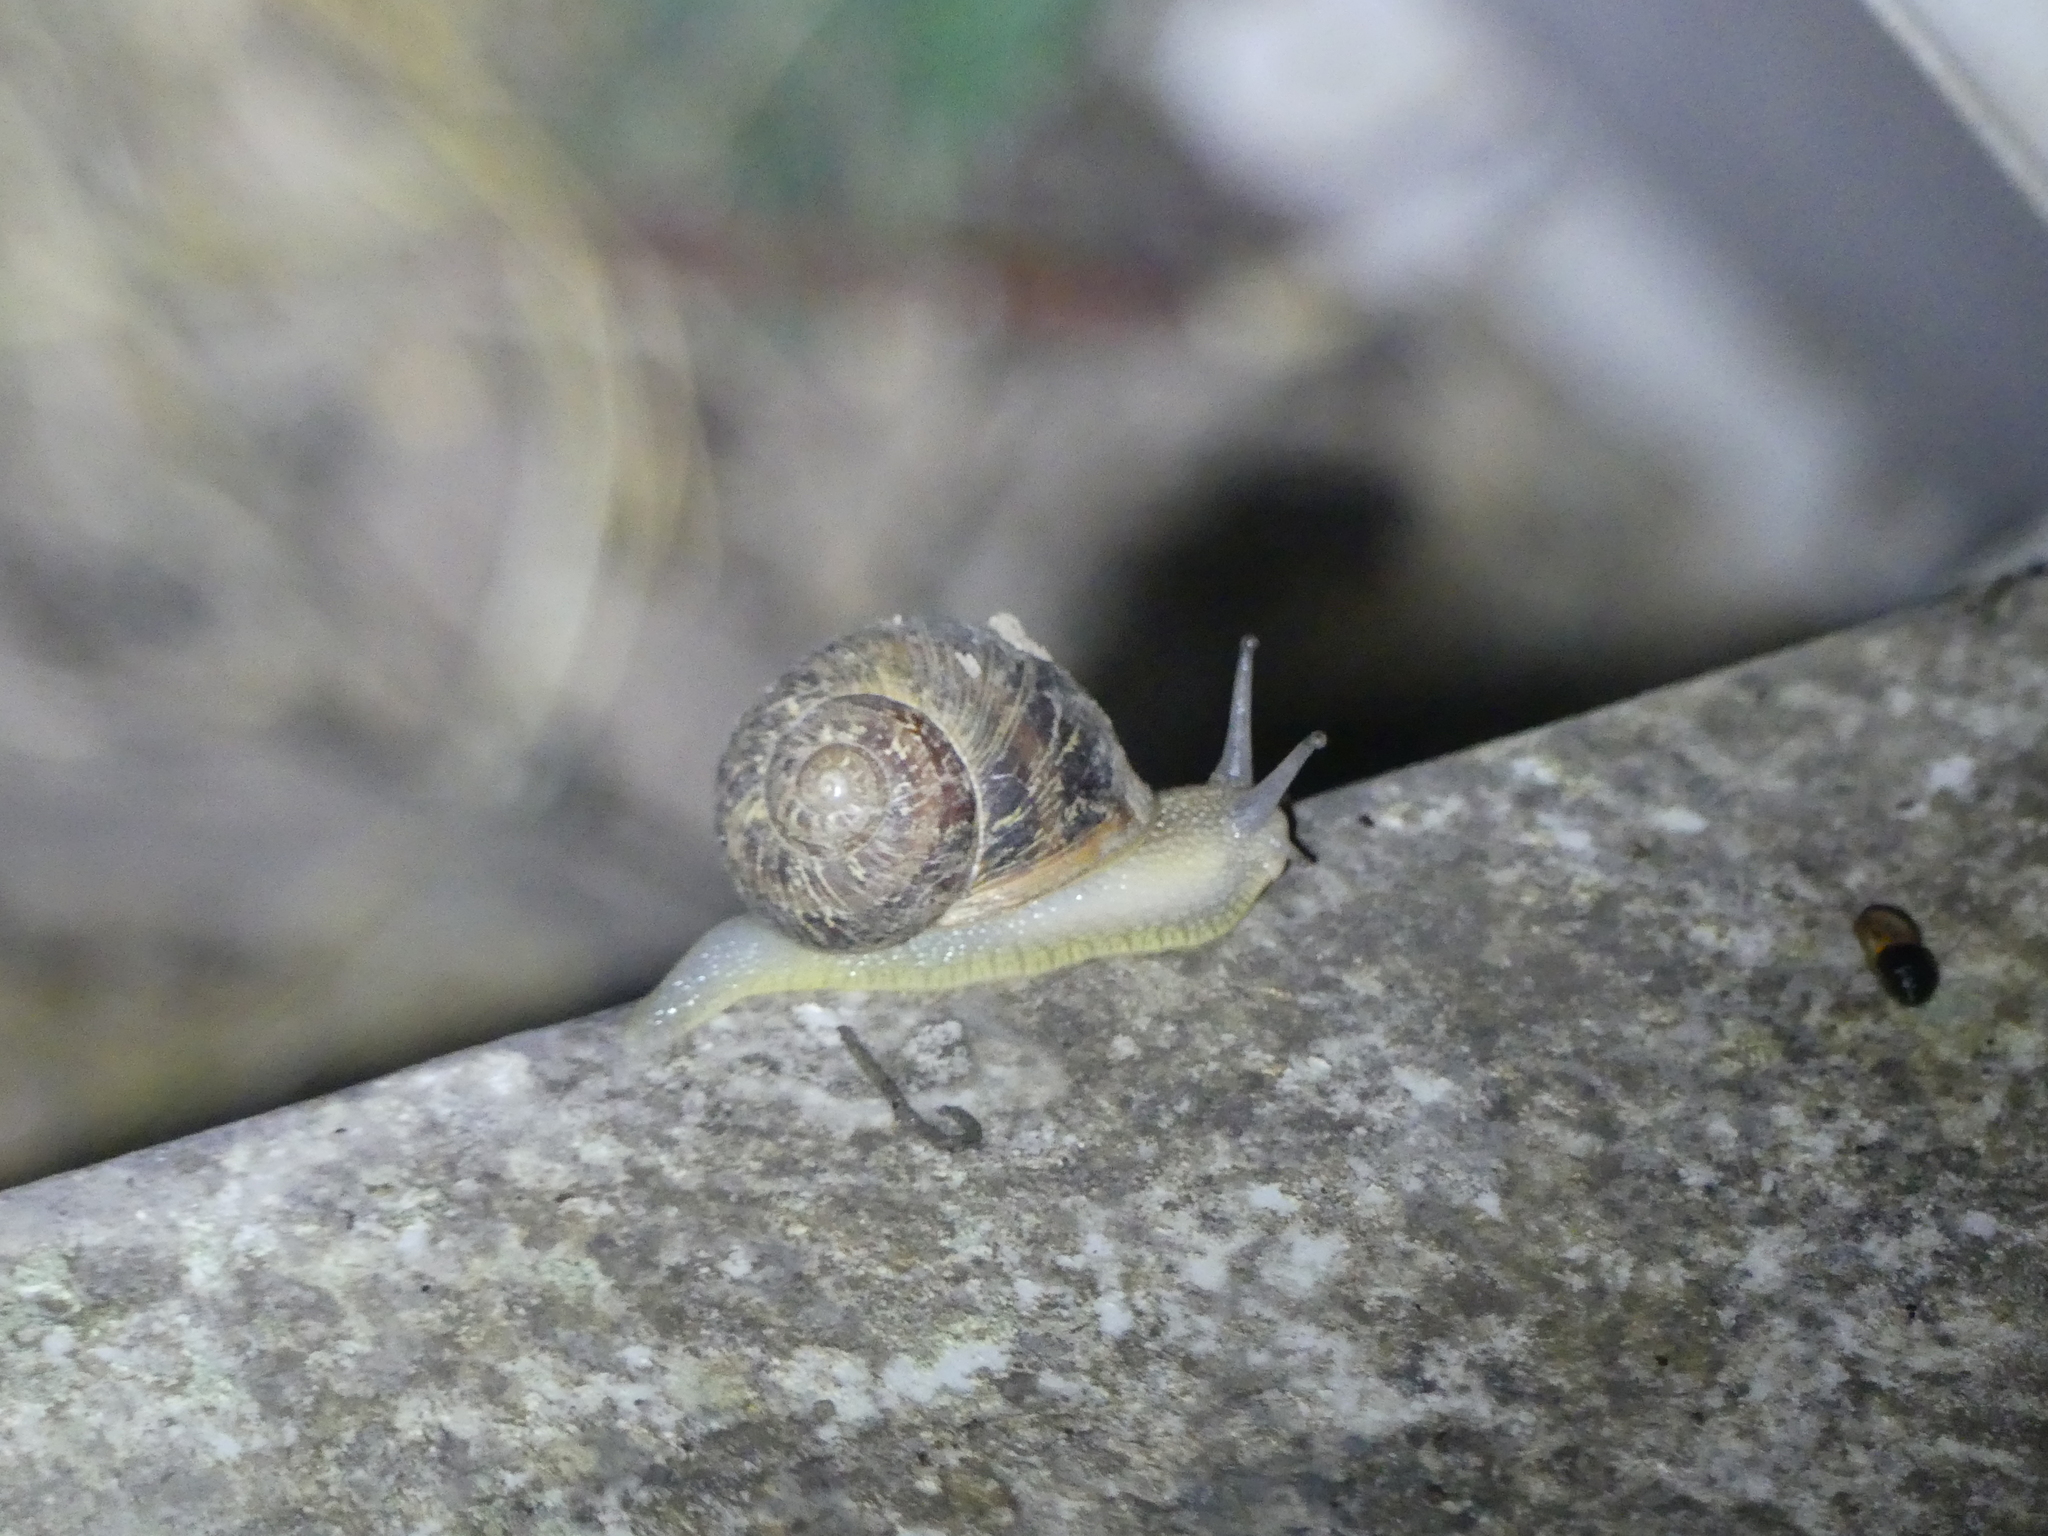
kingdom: Animalia
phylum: Mollusca
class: Gastropoda
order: Stylommatophora
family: Helicidae
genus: Cornu
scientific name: Cornu aspersum
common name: Brown garden snail
